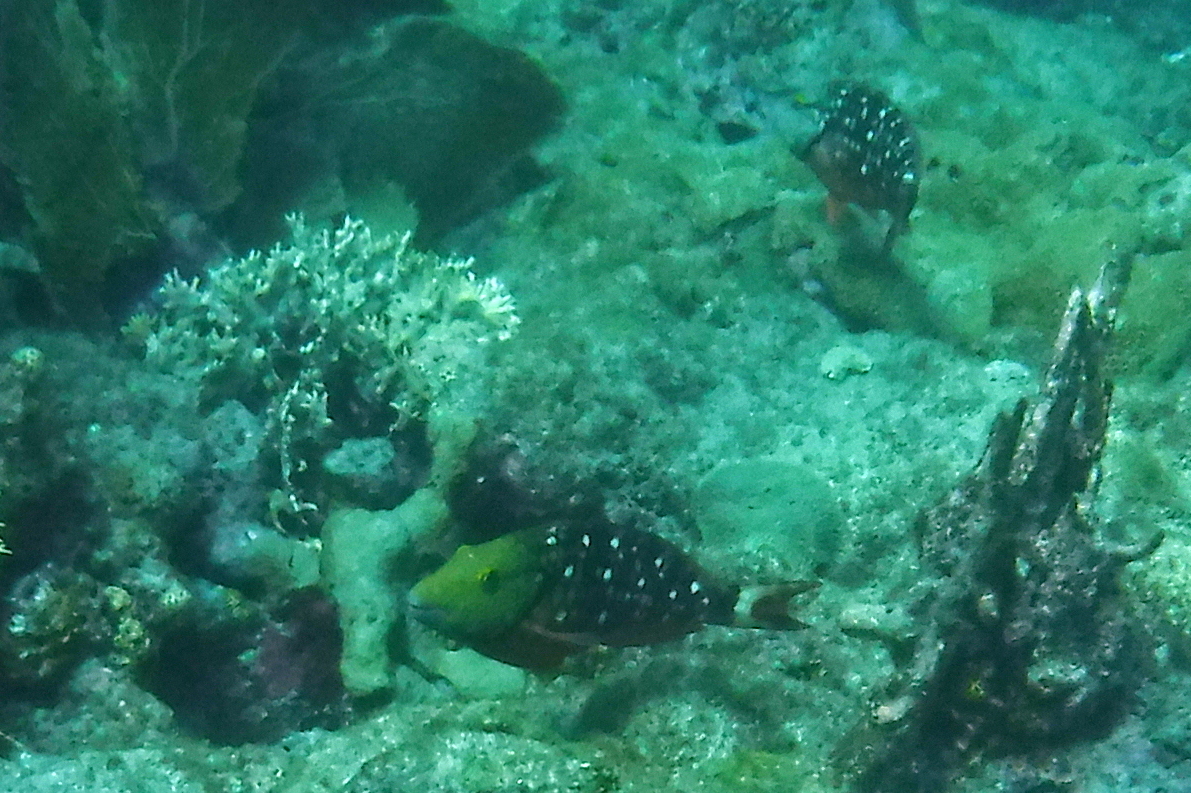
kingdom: Animalia
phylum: Chordata
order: Perciformes
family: Scaridae
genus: Sparisoma
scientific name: Sparisoma viride
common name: Stoplight parrotfish
